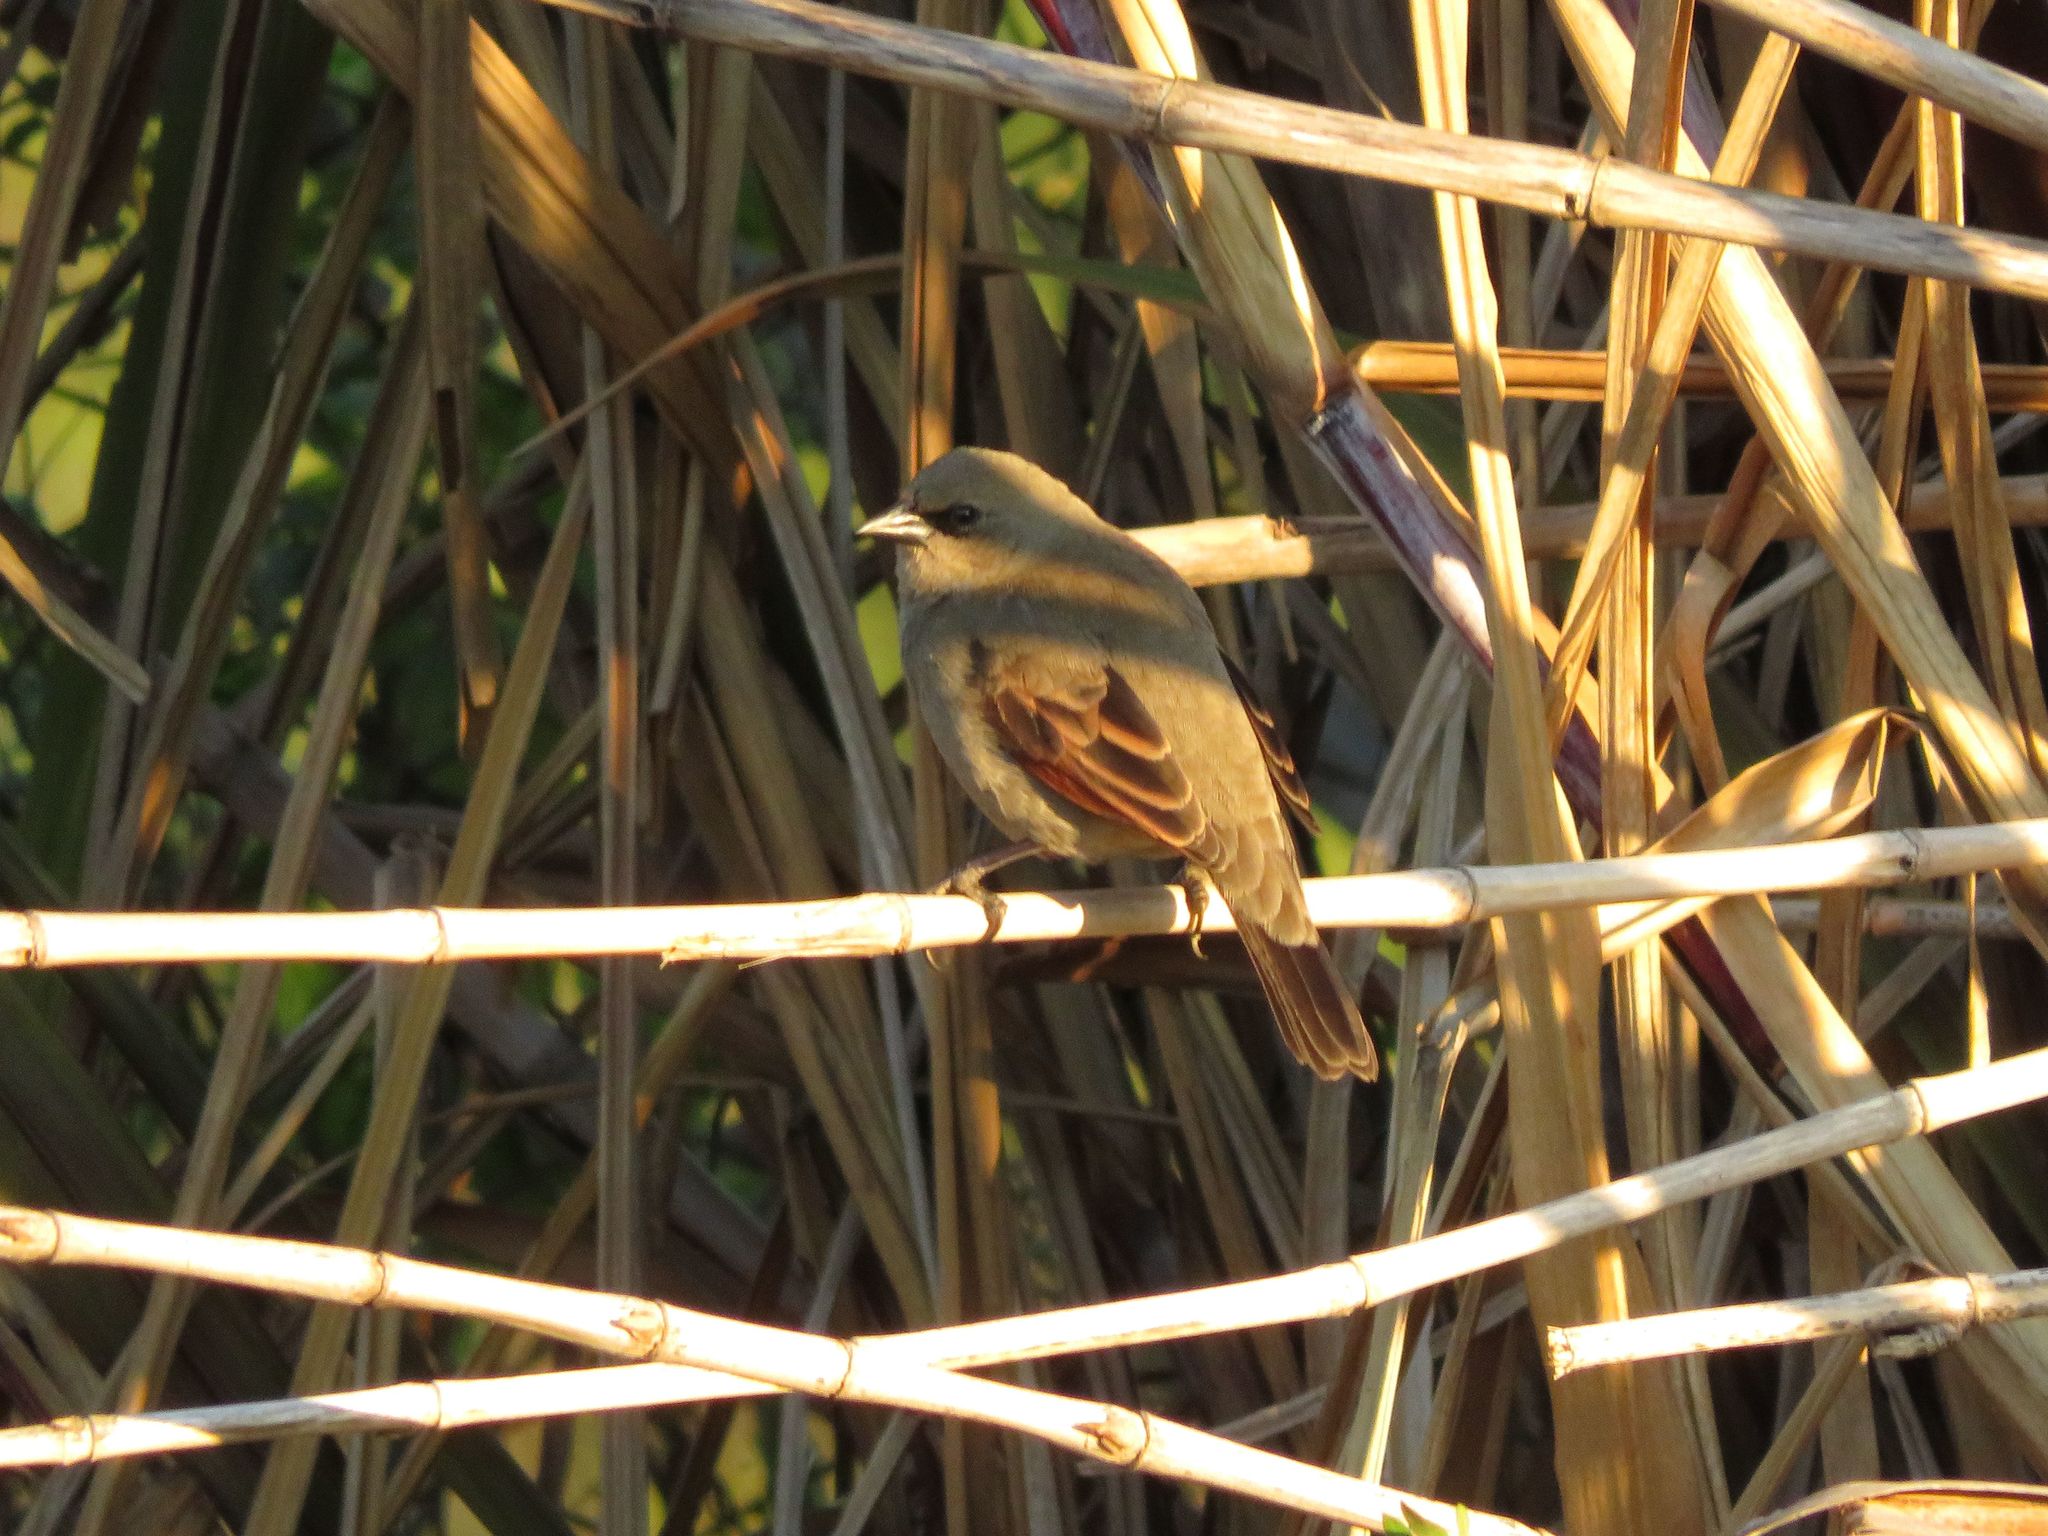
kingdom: Animalia
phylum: Chordata
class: Aves
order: Passeriformes
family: Icteridae
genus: Agelaioides
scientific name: Agelaioides badius
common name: Baywing
